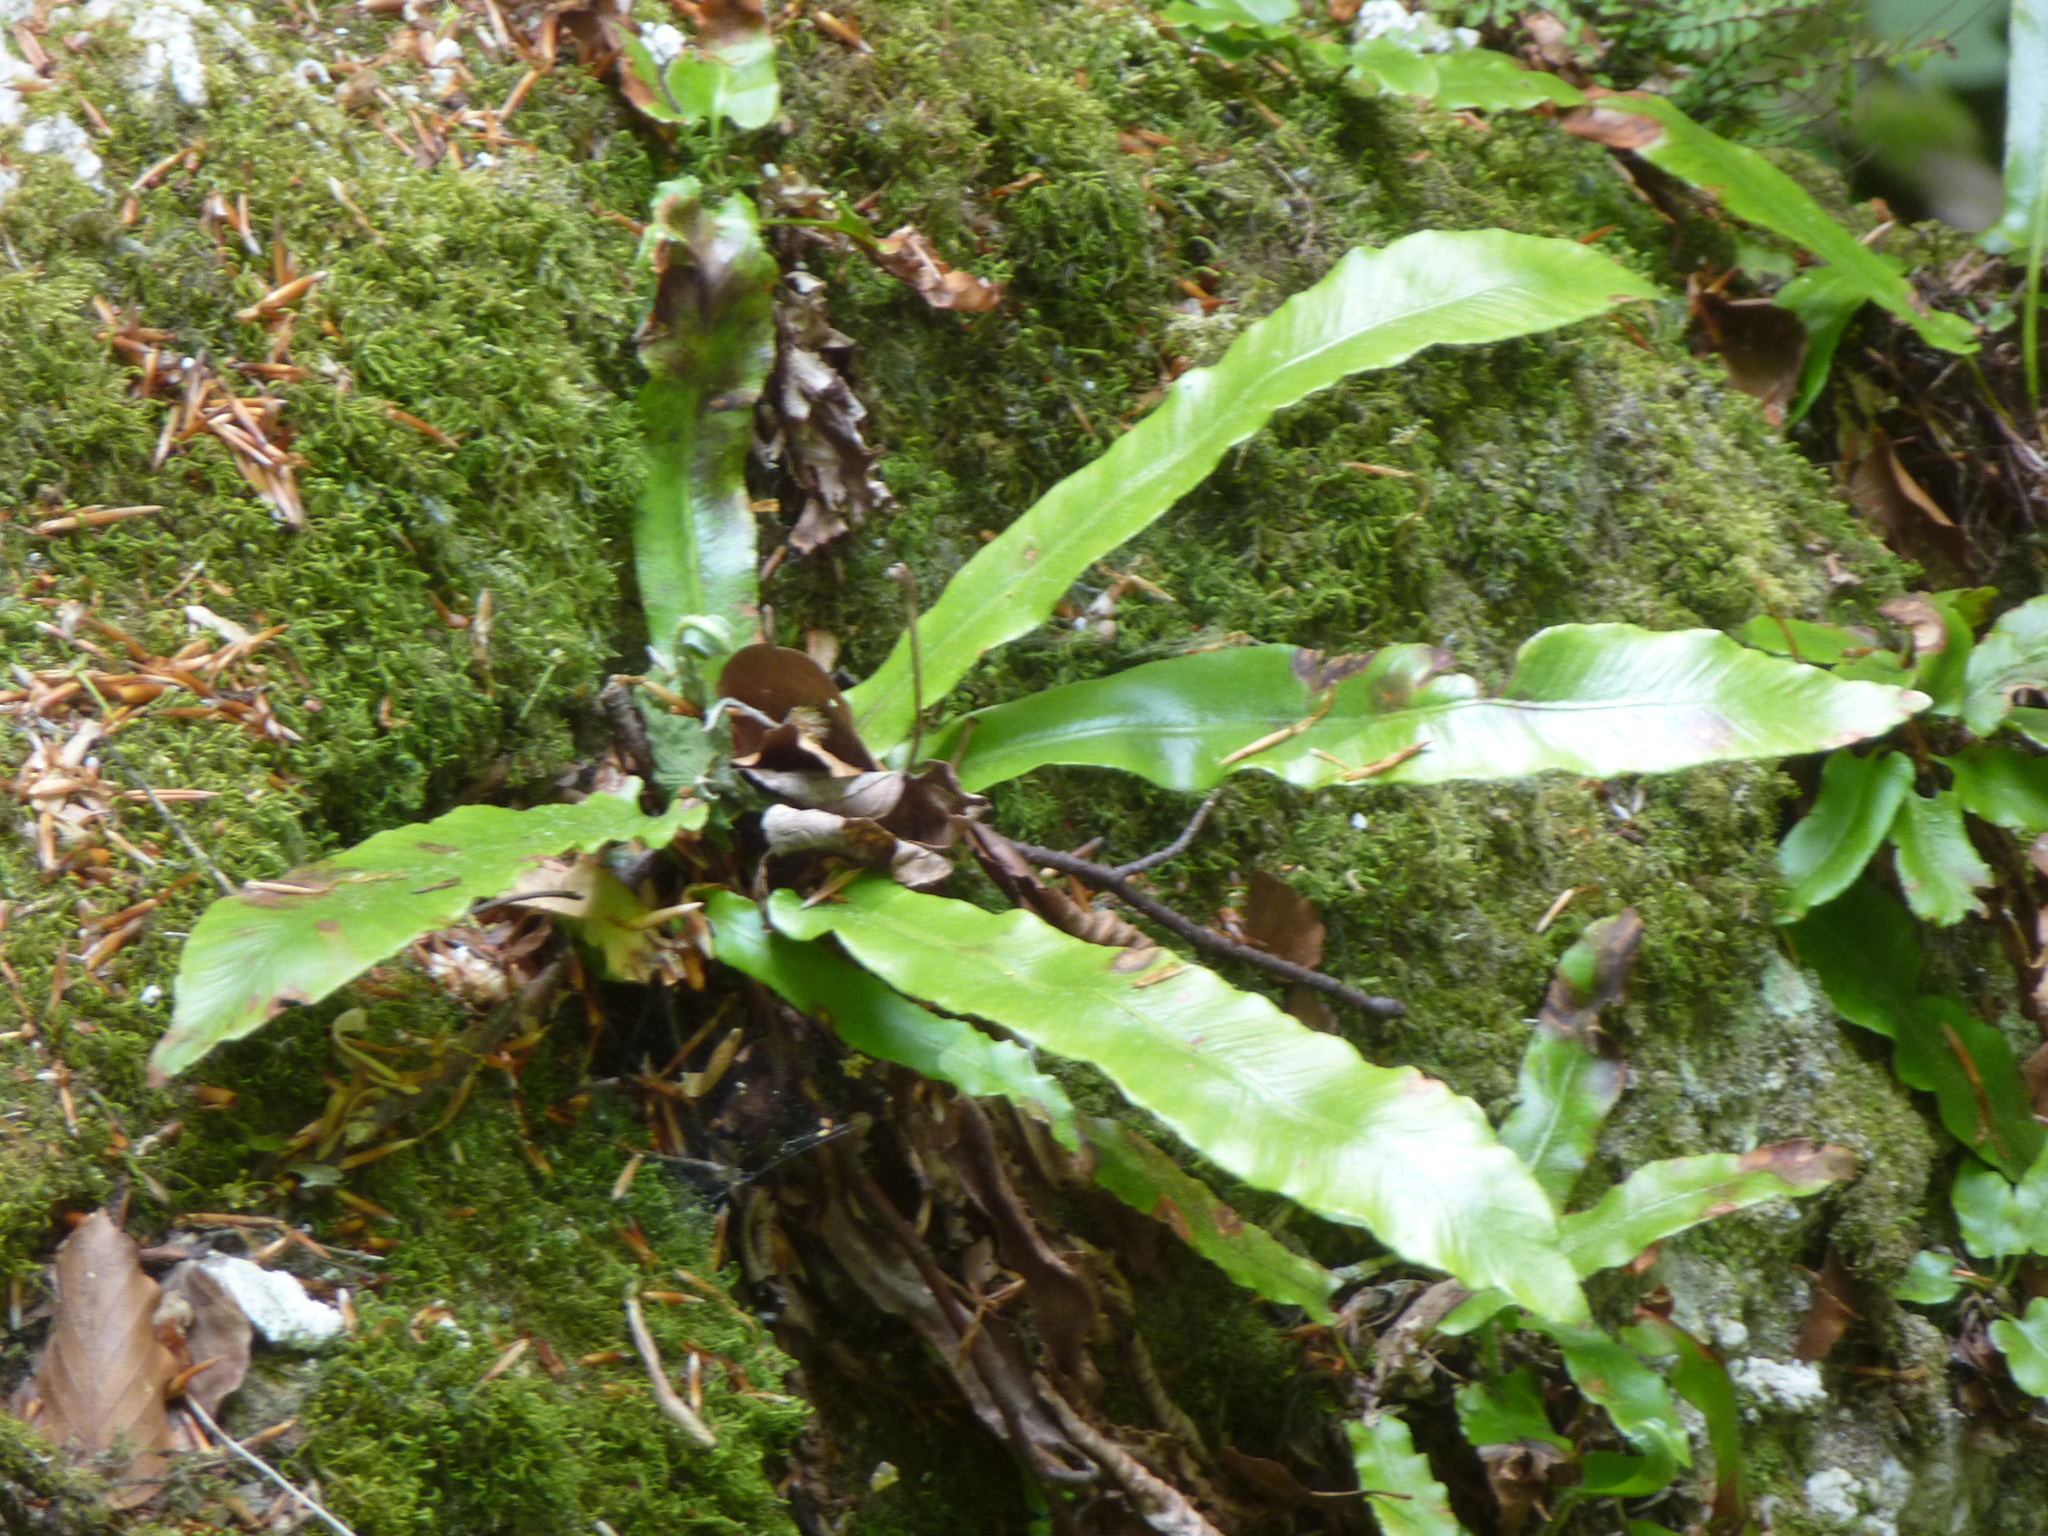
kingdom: Plantae
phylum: Tracheophyta
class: Polypodiopsida
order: Polypodiales
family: Aspleniaceae
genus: Asplenium
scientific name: Asplenium scolopendrium
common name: Hart's-tongue fern
